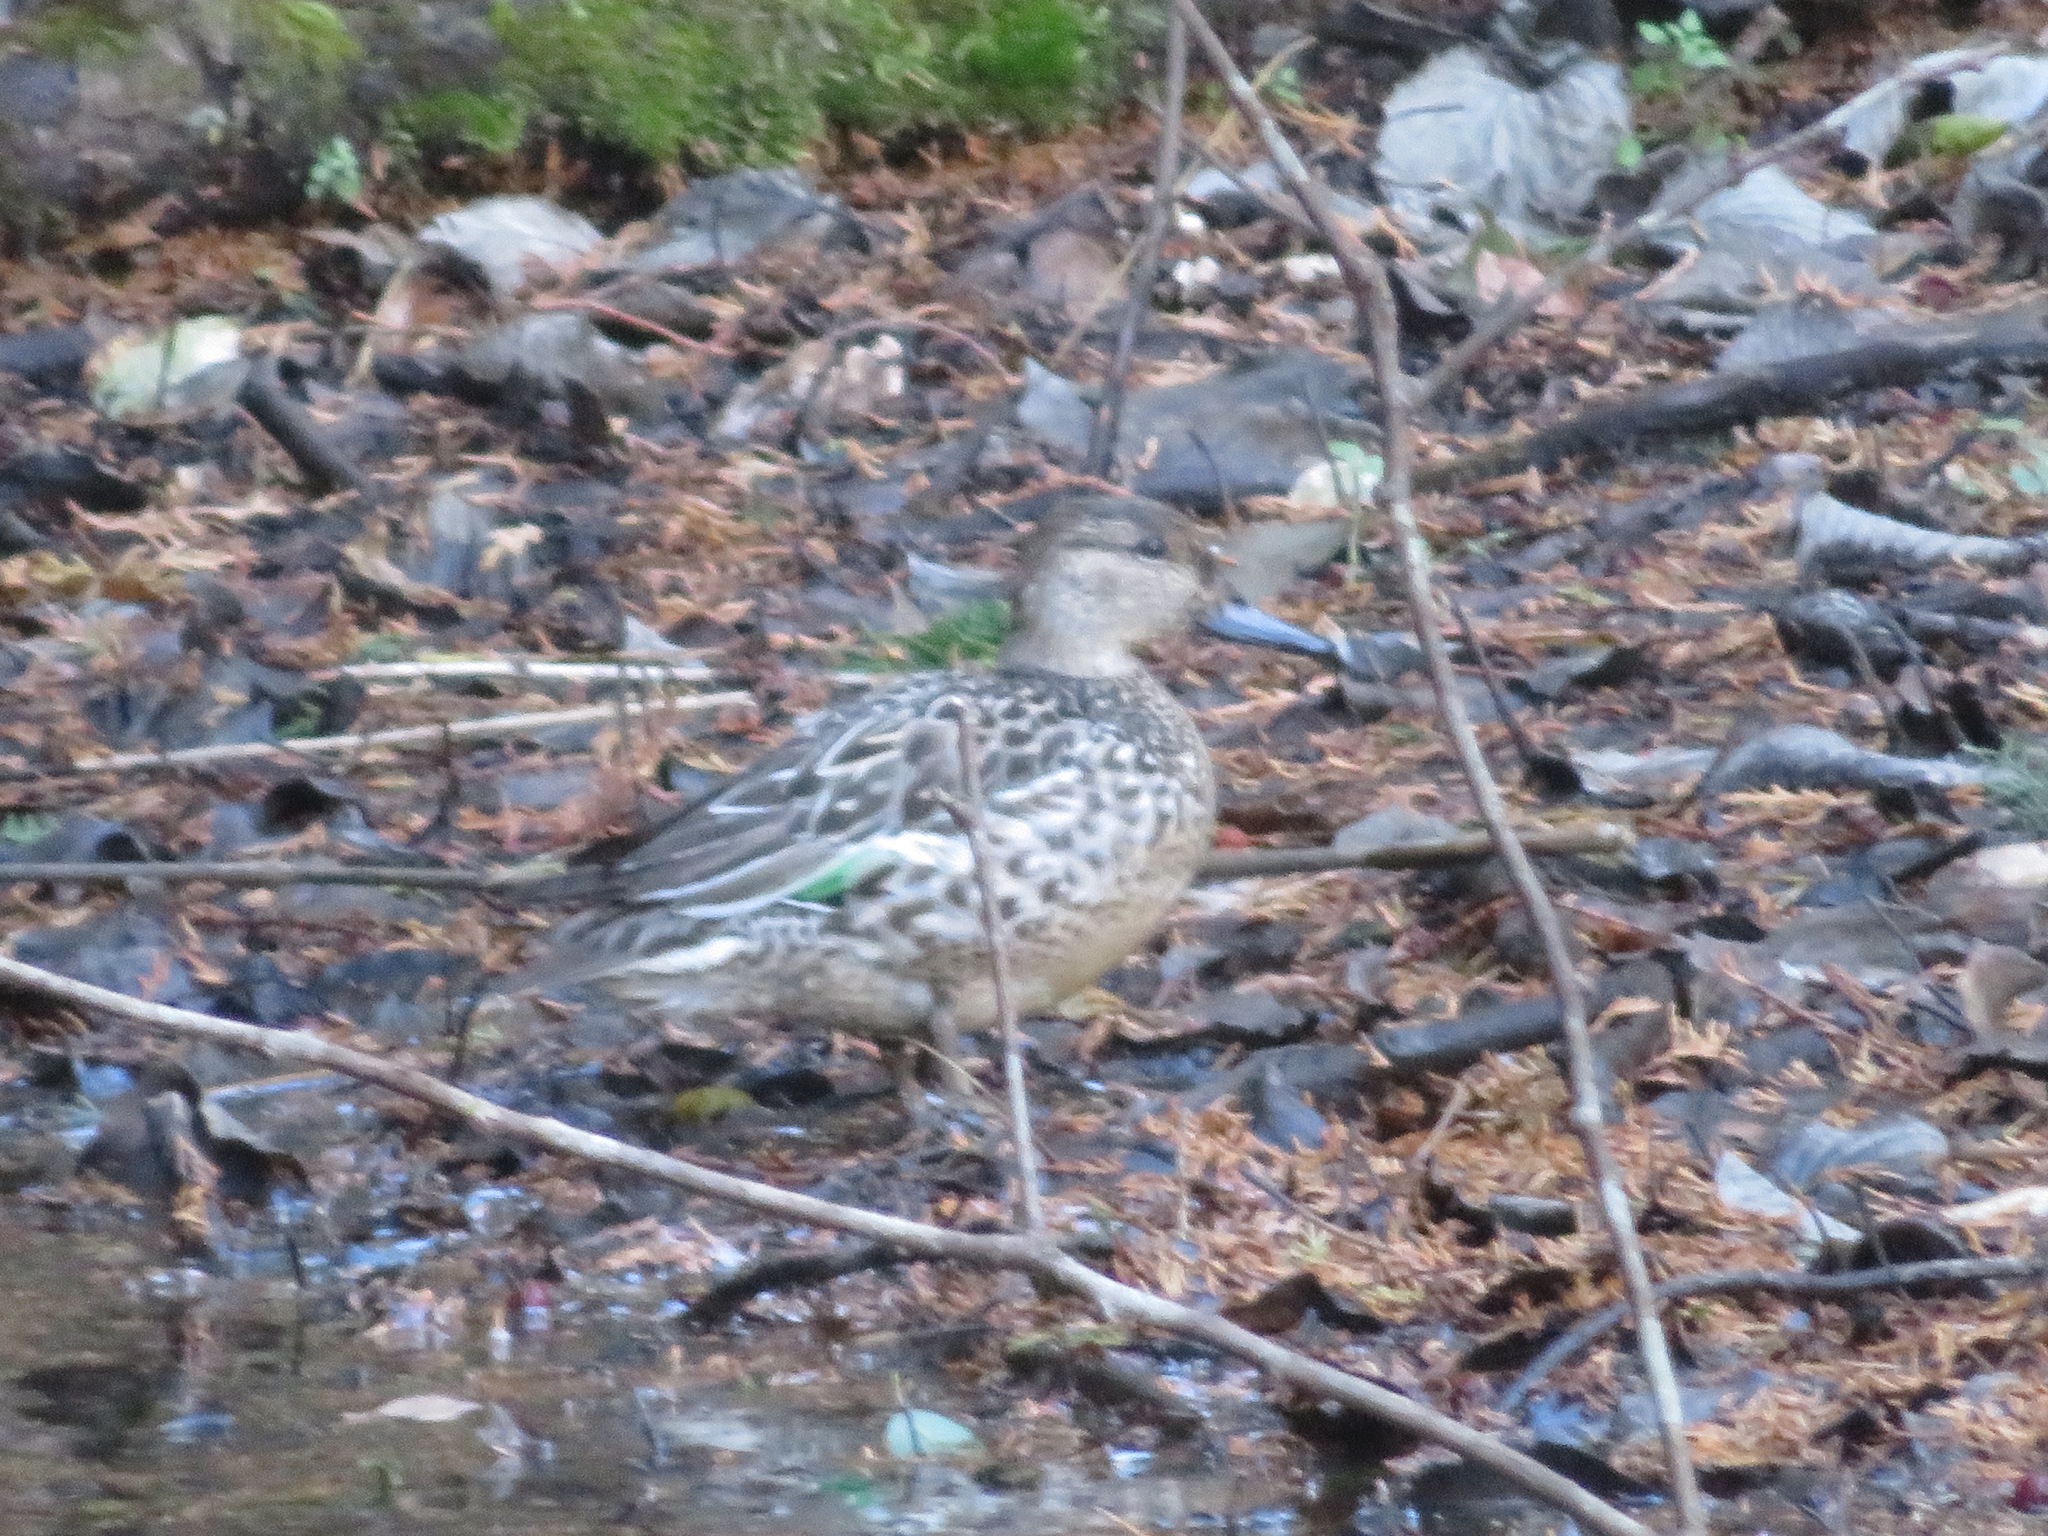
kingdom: Animalia
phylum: Chordata
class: Aves
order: Anseriformes
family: Anatidae
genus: Anas
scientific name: Anas crecca
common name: Eurasian teal
